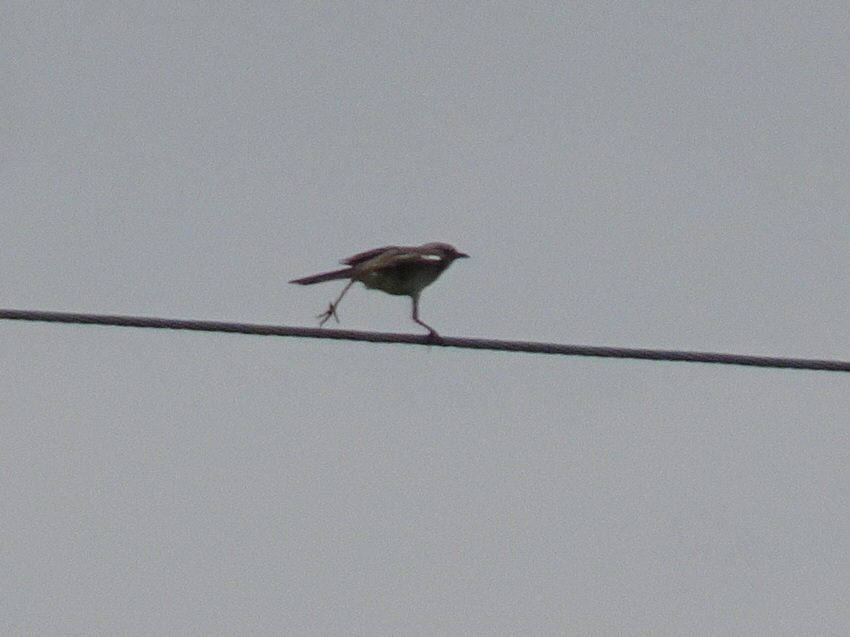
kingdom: Animalia
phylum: Chordata
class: Aves
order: Passeriformes
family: Mimidae
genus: Mimus
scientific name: Mimus polyglottos
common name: Northern mockingbird
